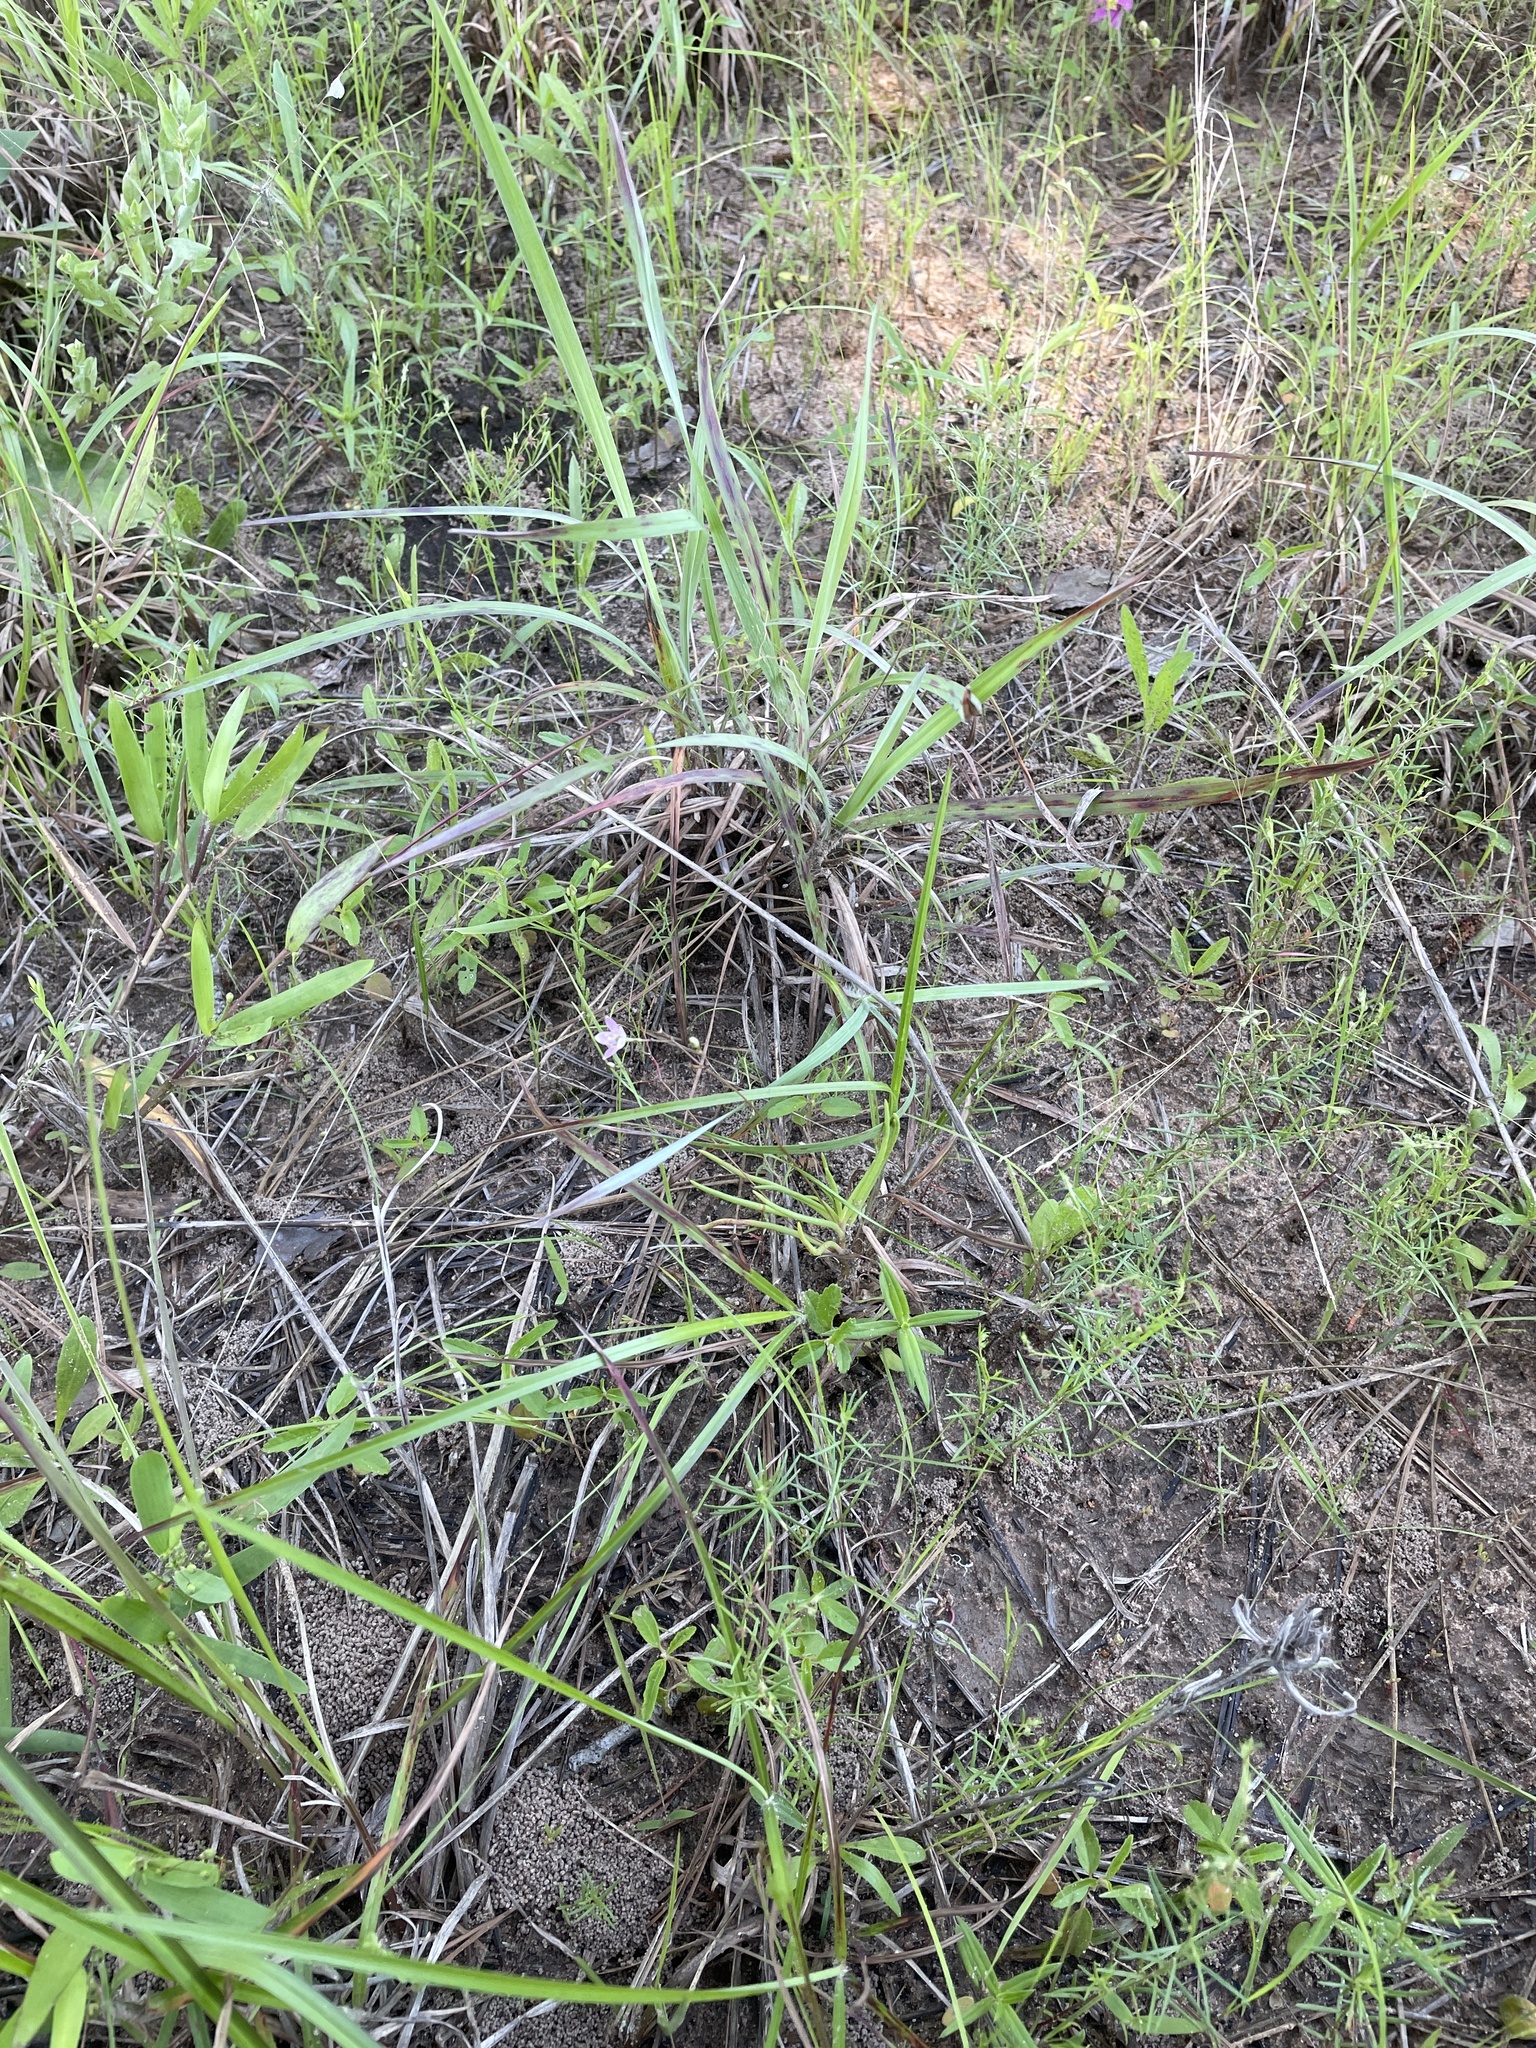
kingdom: Plantae
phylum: Tracheophyta
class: Magnoliopsida
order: Caryophyllales
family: Montiaceae
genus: Phemeranthus
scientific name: Phemeranthus parviflorus
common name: Sunbright
